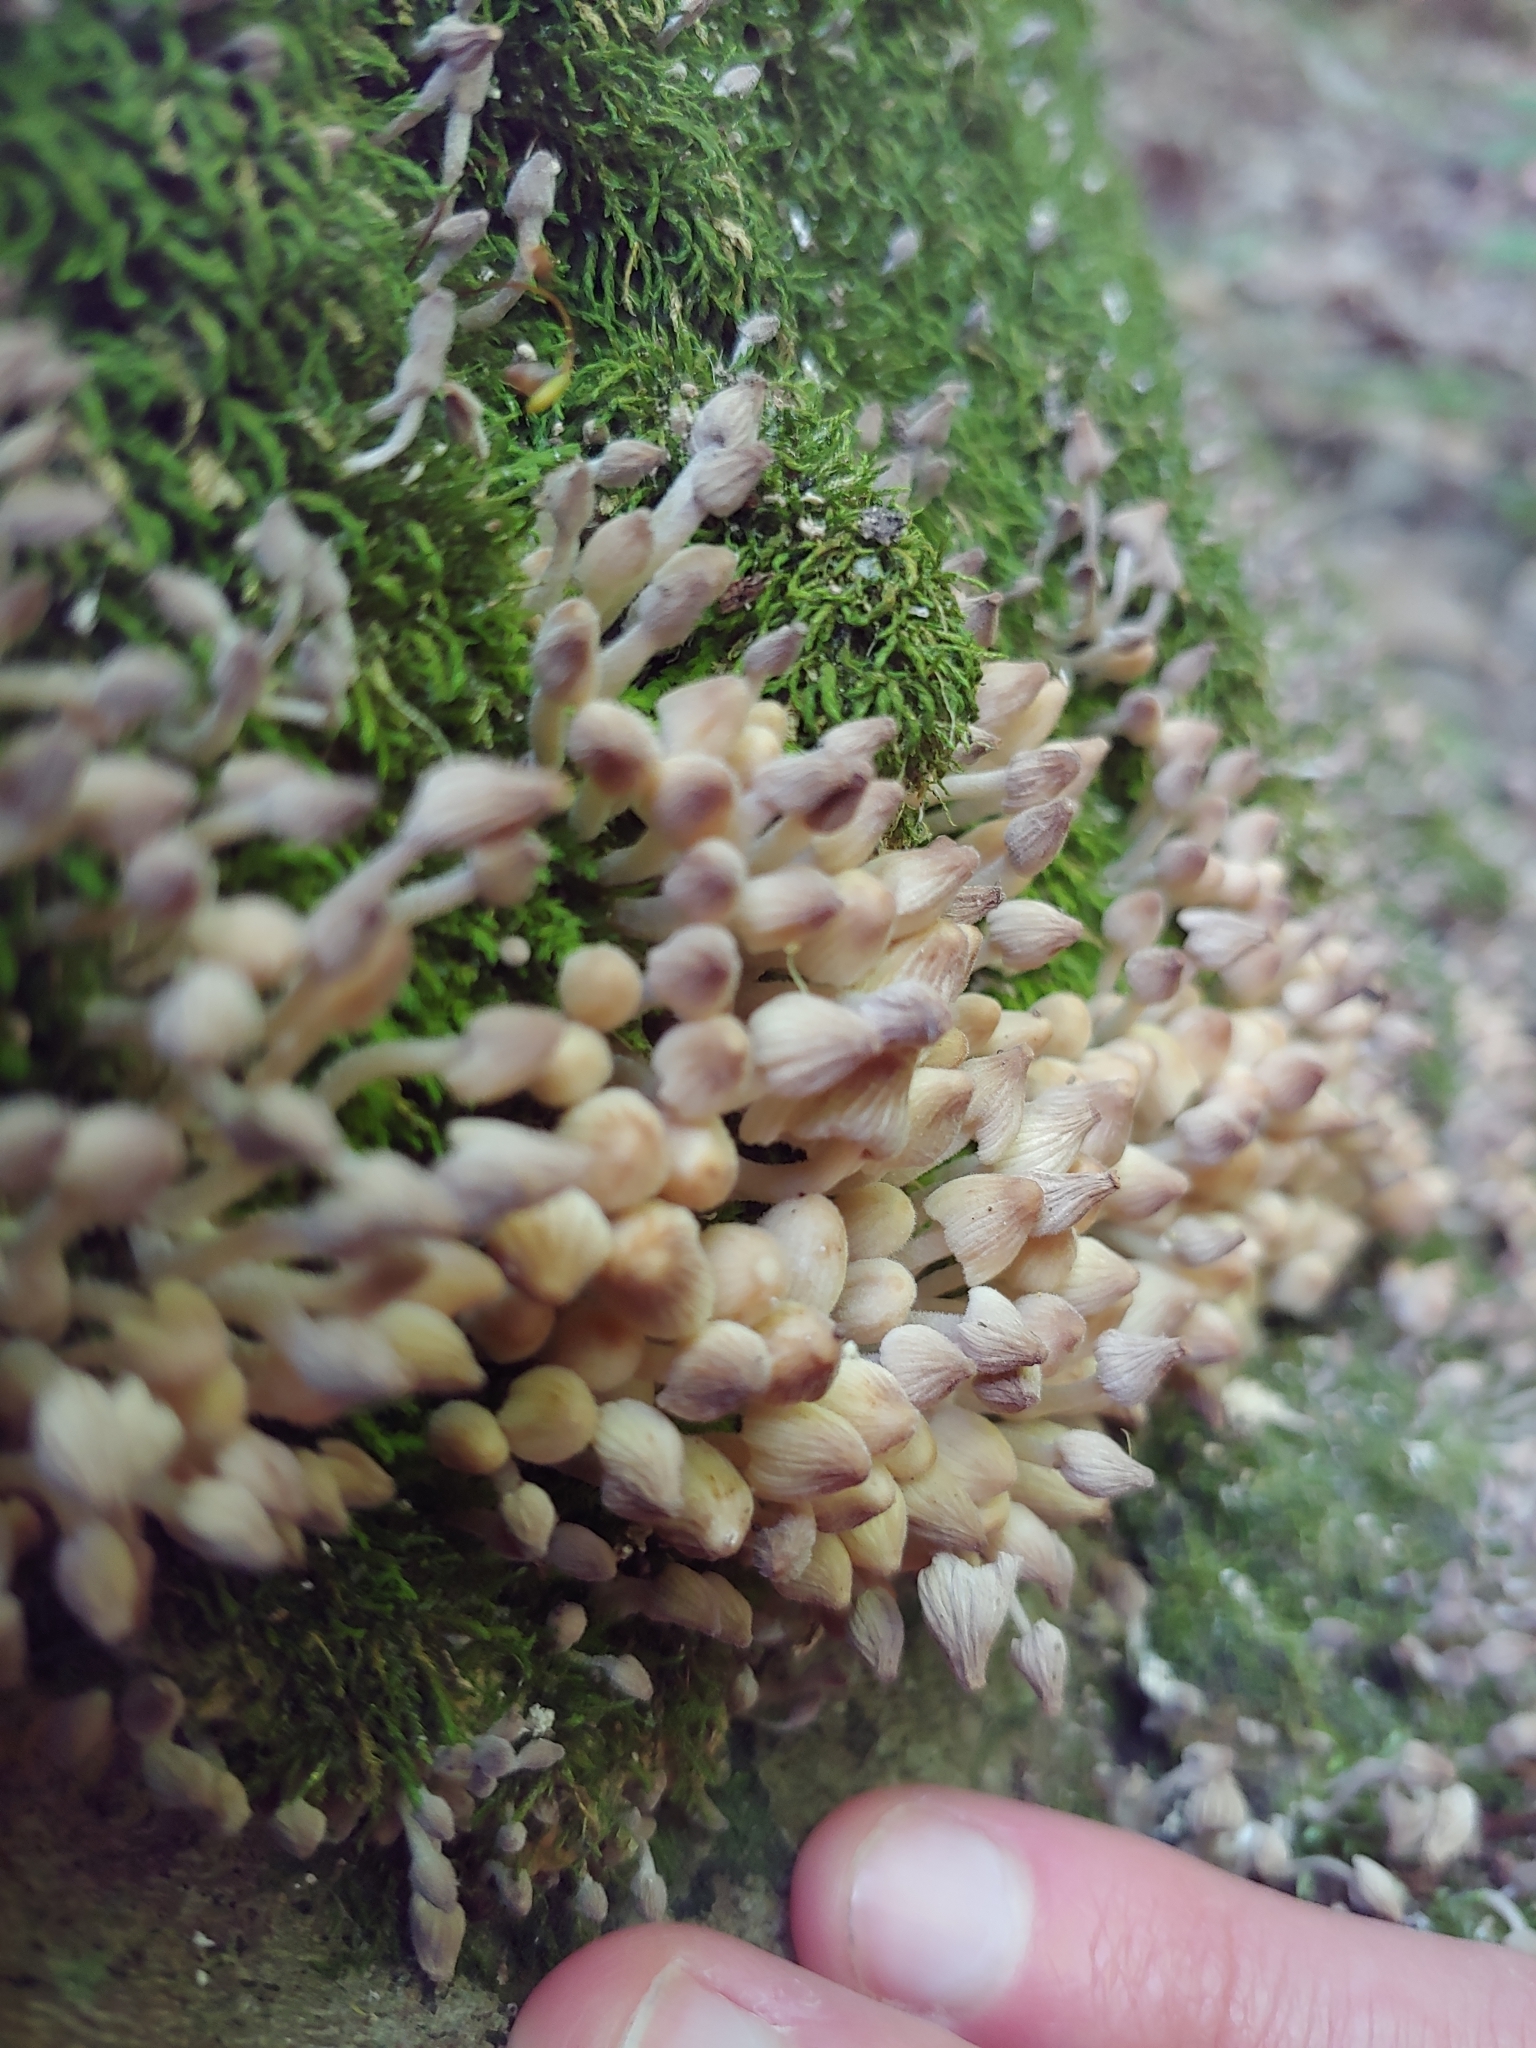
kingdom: Fungi
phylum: Basidiomycota
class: Agaricomycetes
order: Agaricales
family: Psathyrellaceae
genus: Coprinellus
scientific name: Coprinellus disseminatus
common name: Fairies' bonnets
